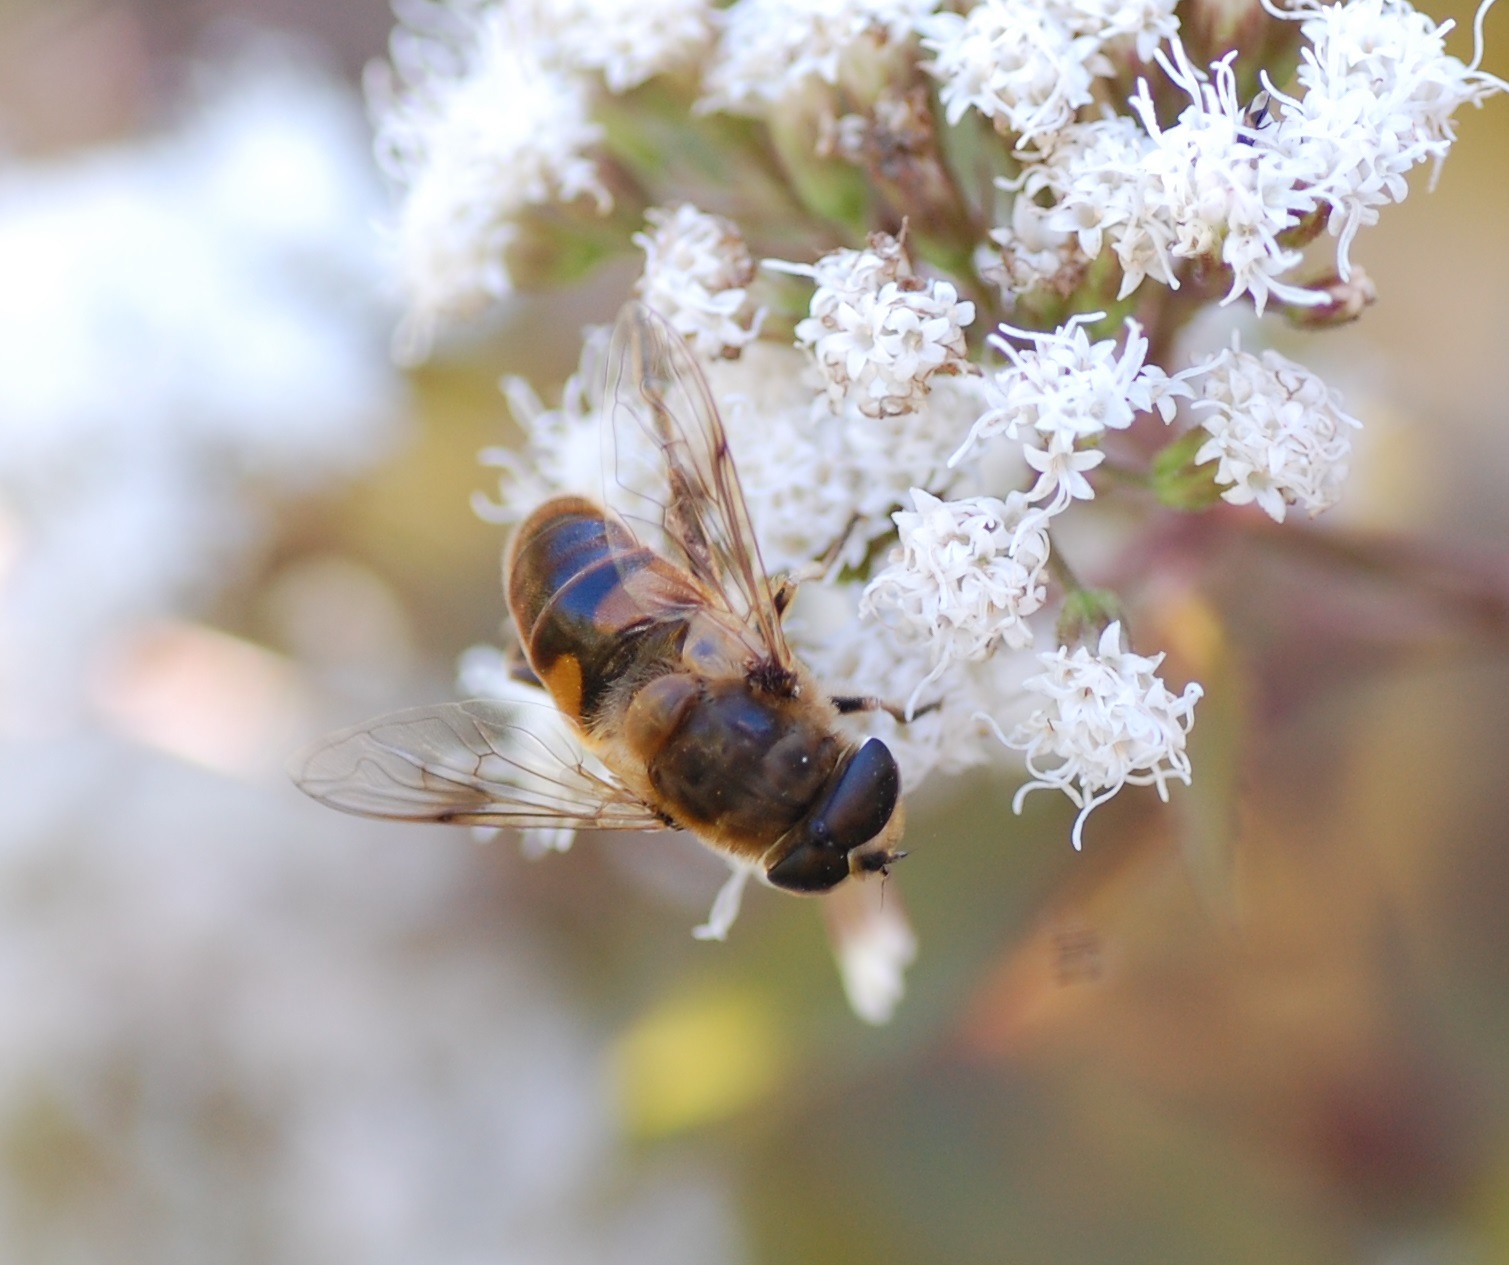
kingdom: Animalia
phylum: Arthropoda
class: Insecta
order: Diptera
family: Syrphidae
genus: Eristalis
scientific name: Eristalis tenax
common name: Drone fly
